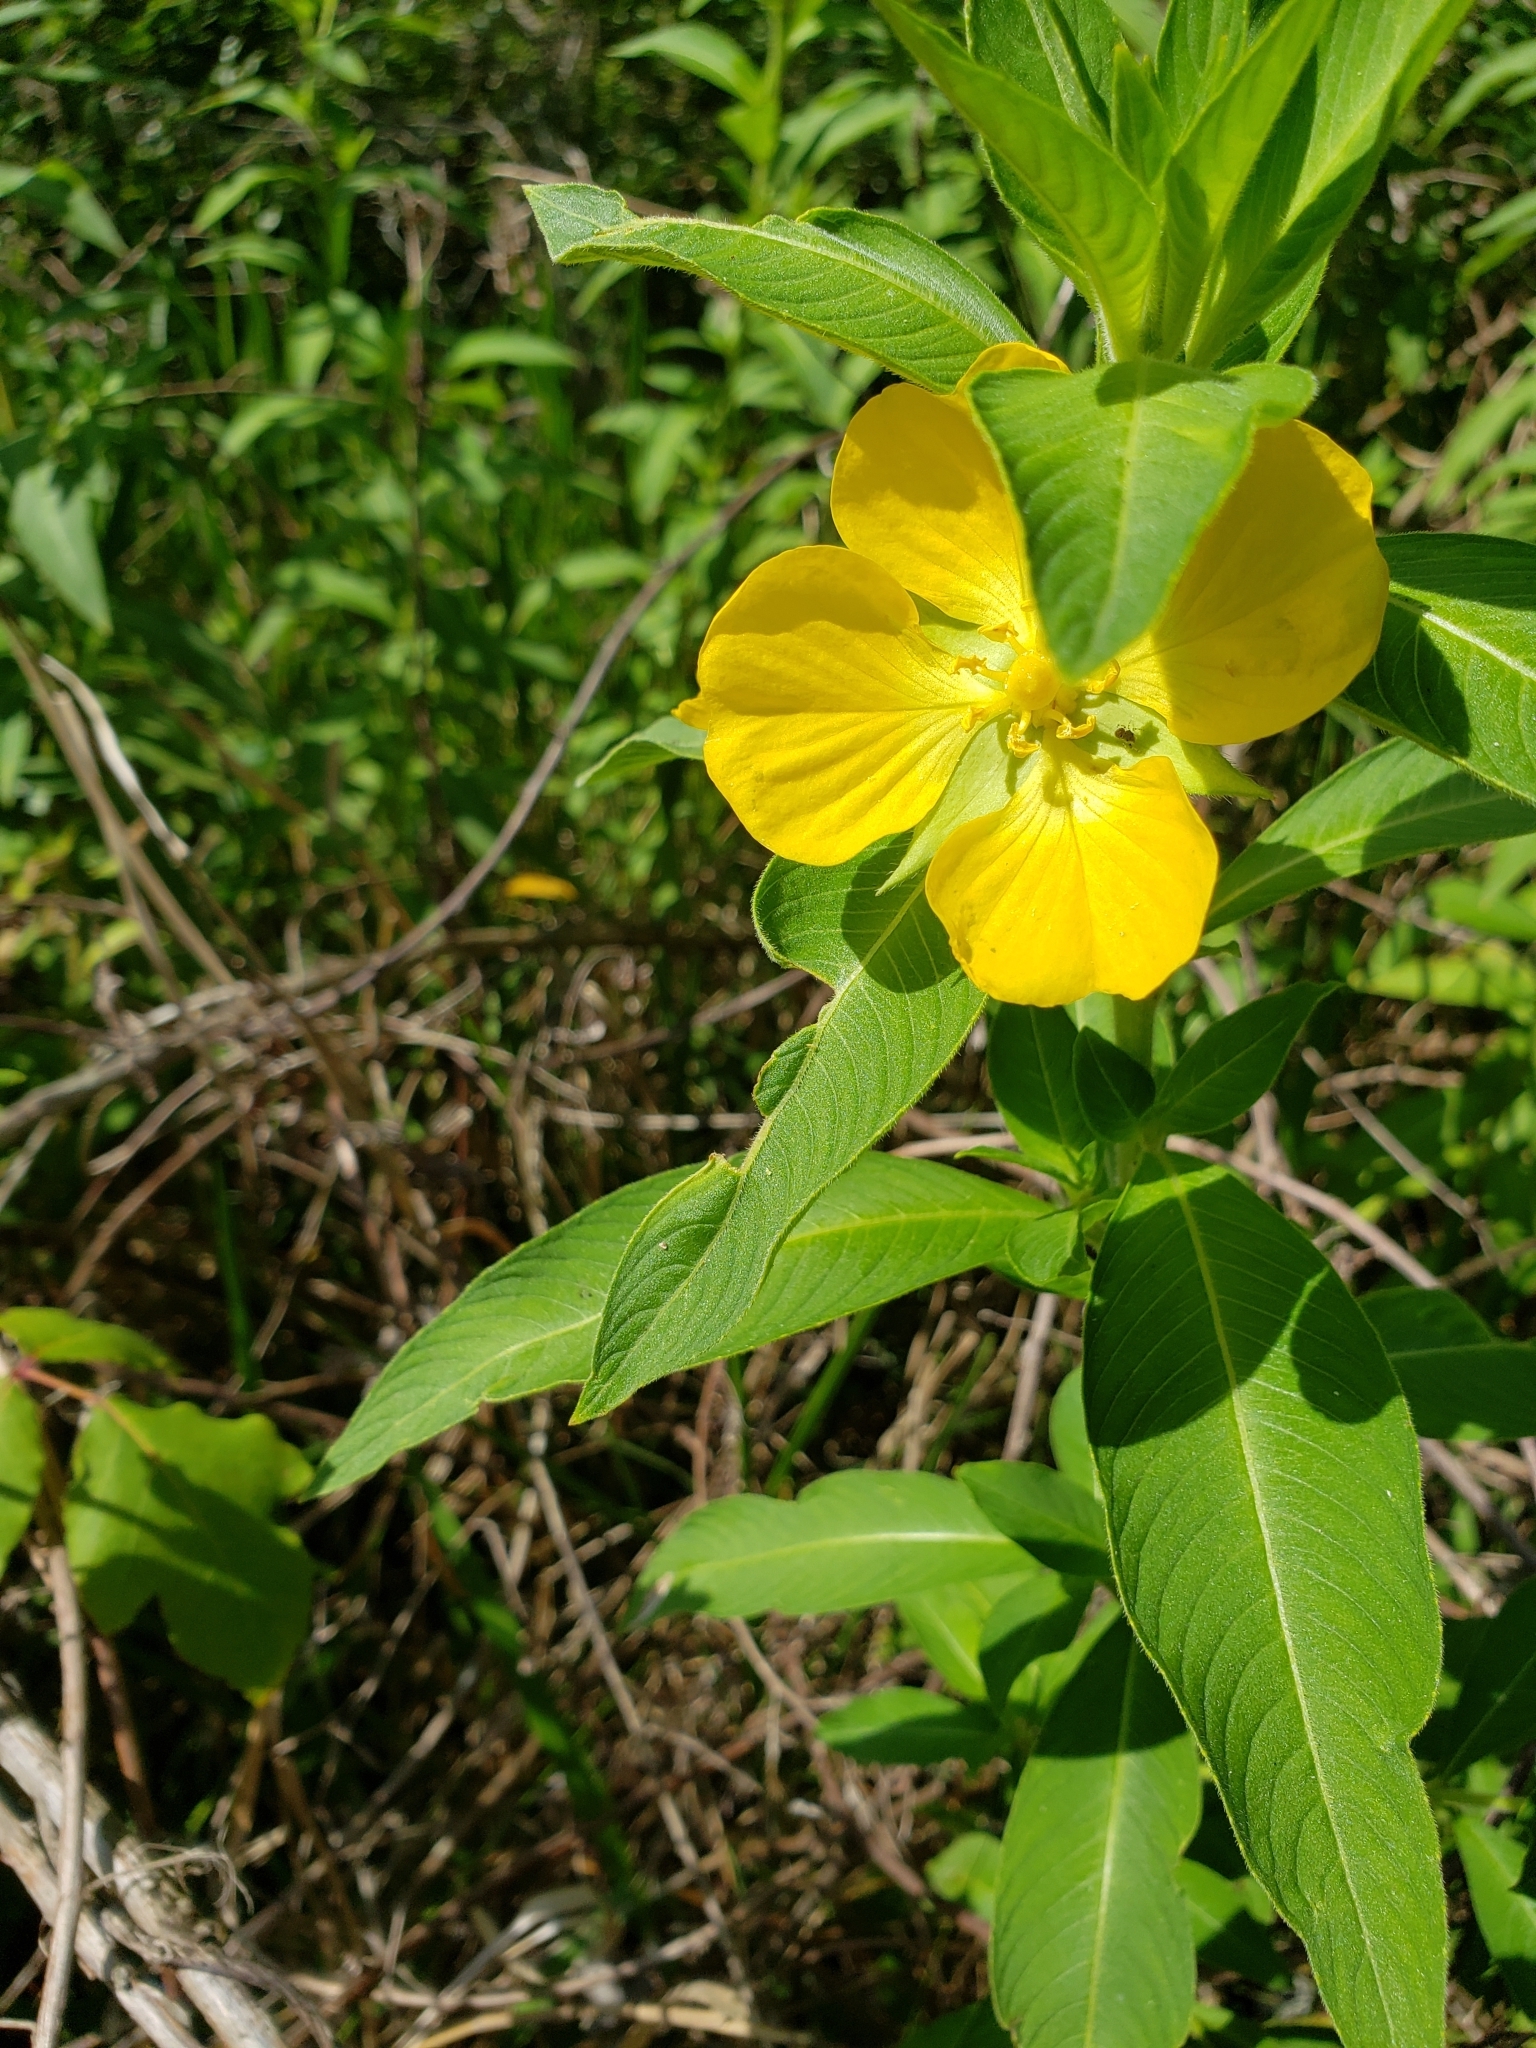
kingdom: Plantae
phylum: Tracheophyta
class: Magnoliopsida
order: Myrtales
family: Onagraceae
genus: Ludwigia
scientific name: Ludwigia peruviana
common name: Peruvian primrose-willow
